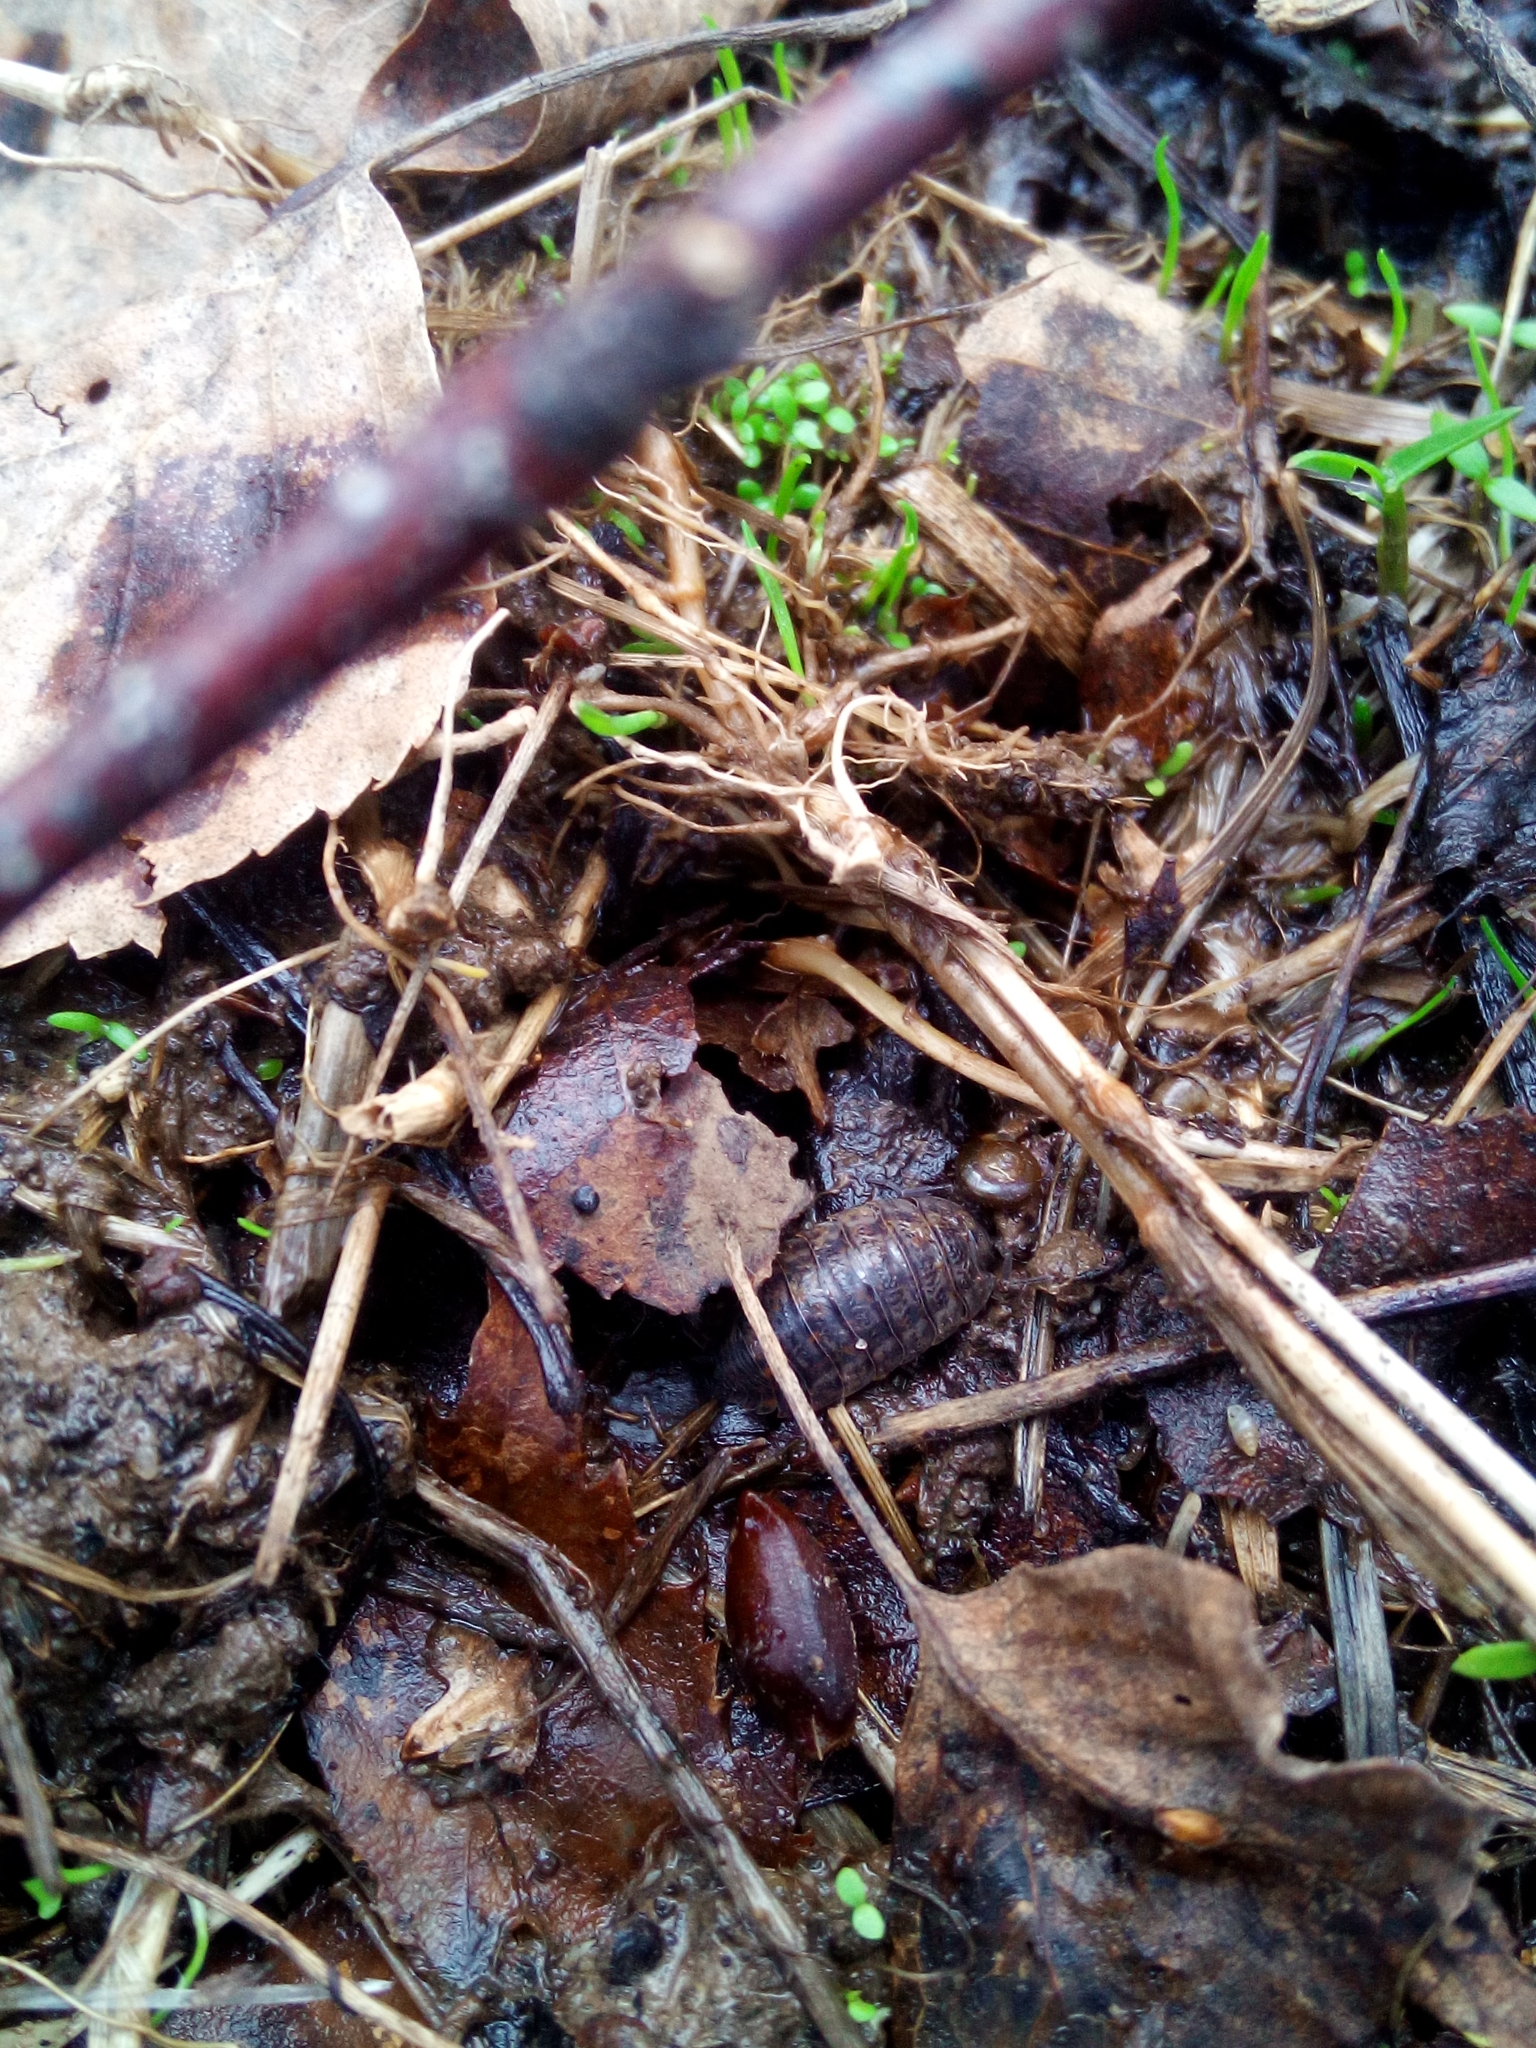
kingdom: Animalia
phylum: Arthropoda
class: Malacostraca
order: Isopoda
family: Trachelipodidae
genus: Trachelipus
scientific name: Trachelipus rathkii
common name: Isopod
